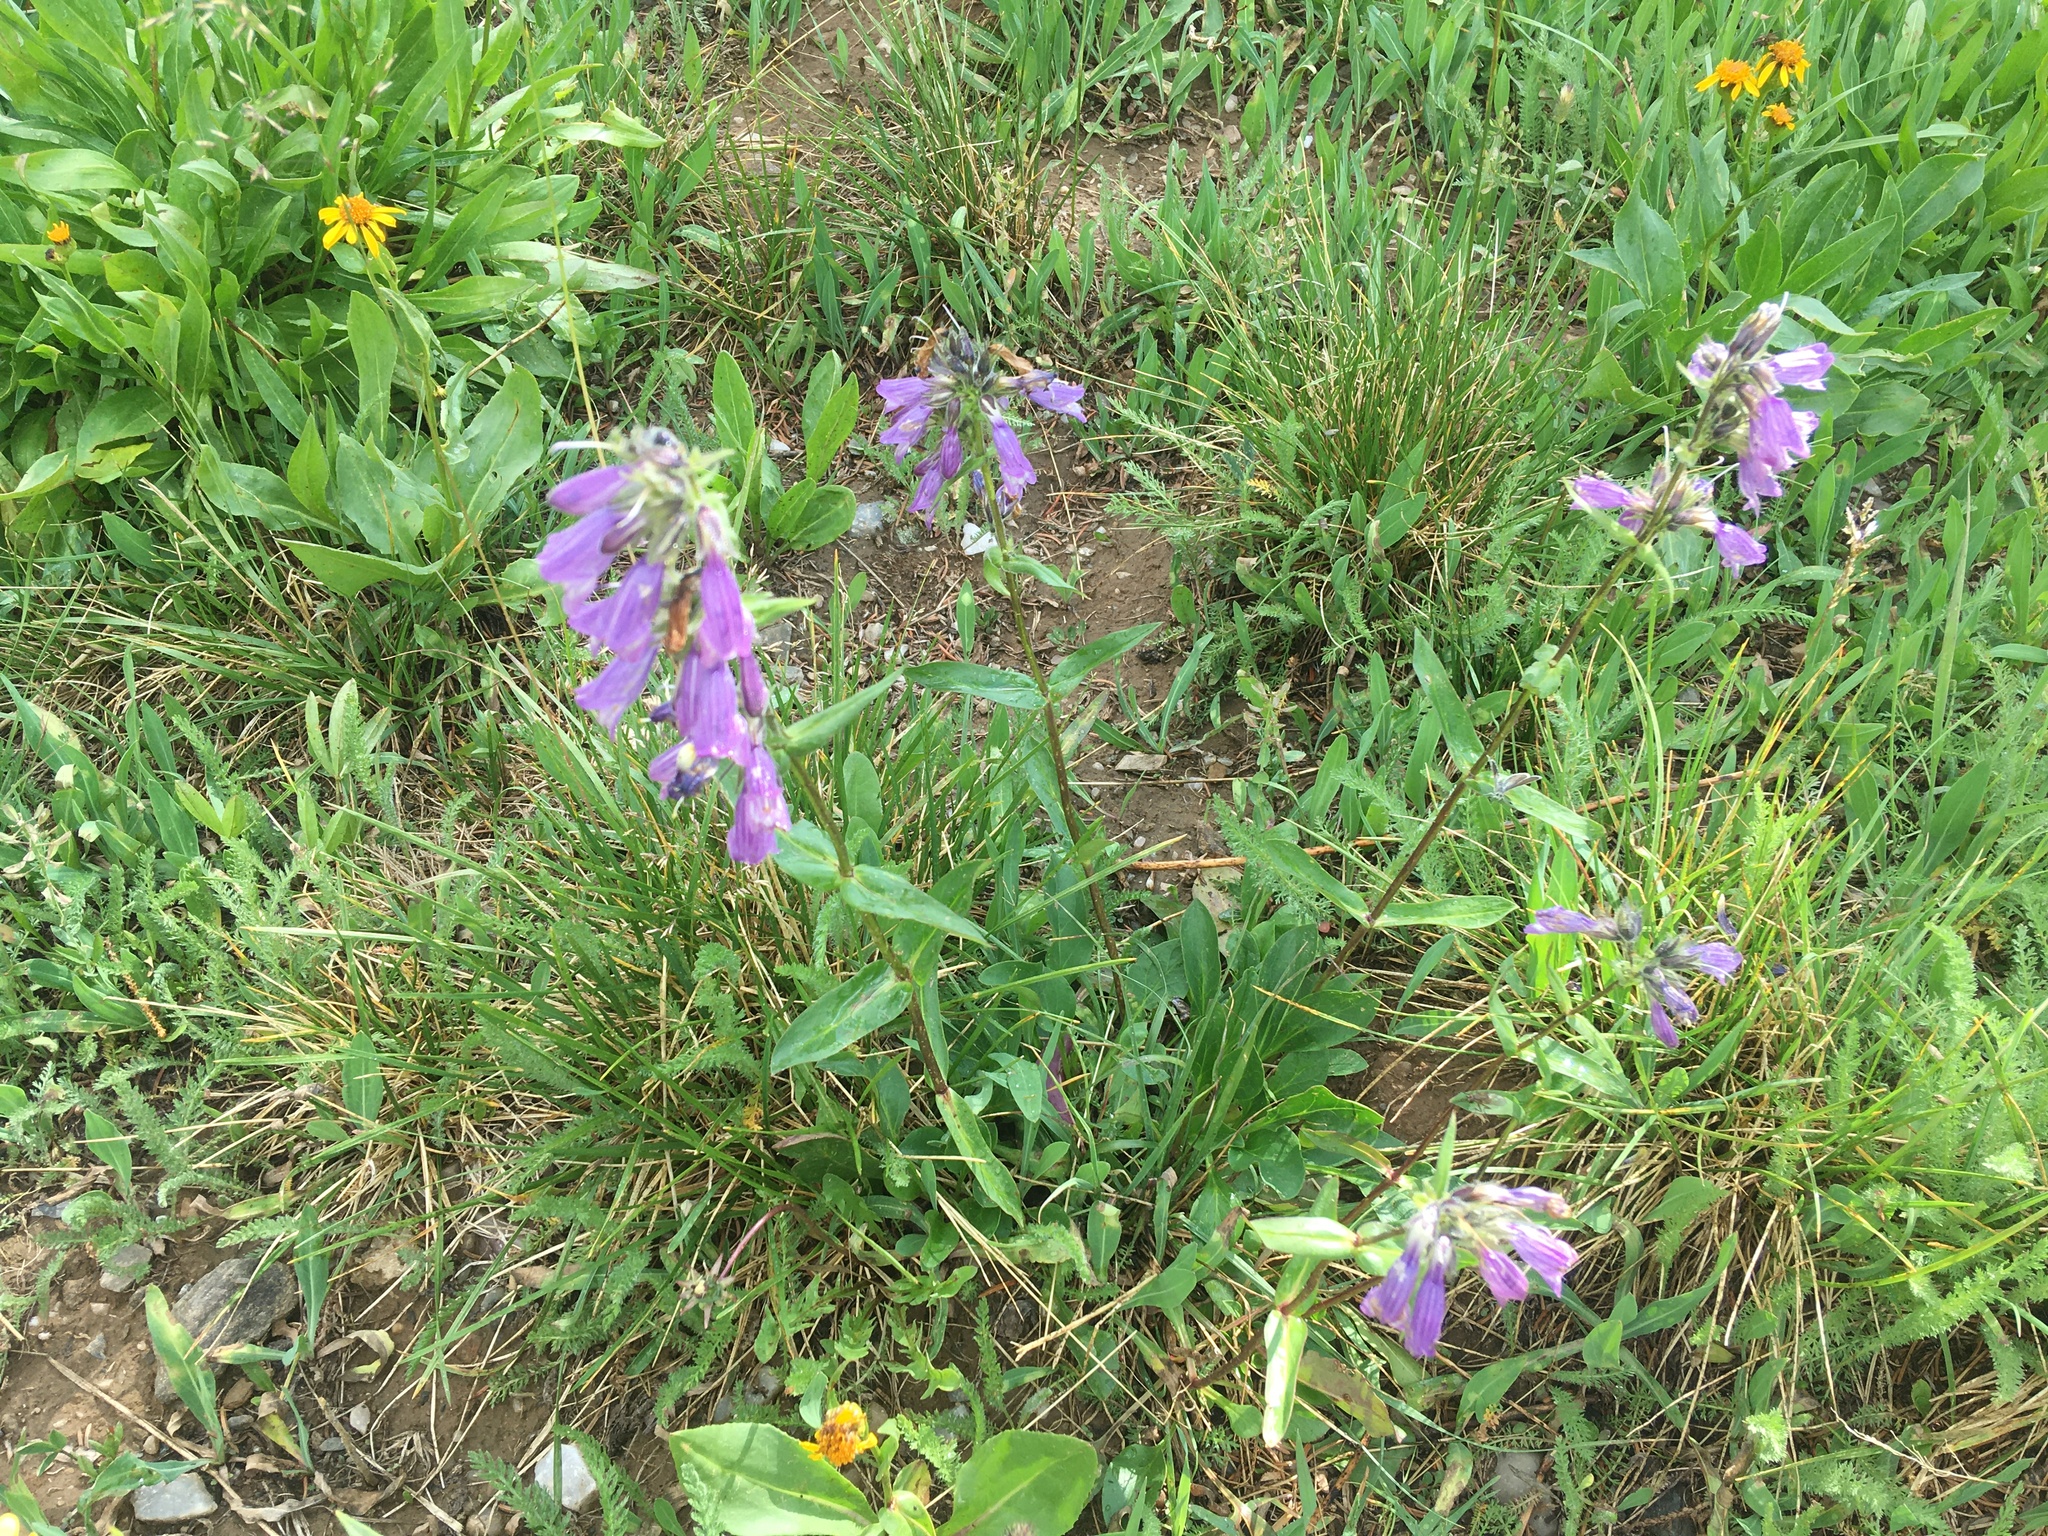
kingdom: Plantae
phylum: Tracheophyta
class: Magnoliopsida
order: Lamiales
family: Plantaginaceae
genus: Penstemon
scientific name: Penstemon whippleanus
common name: Whipple's penstemon
